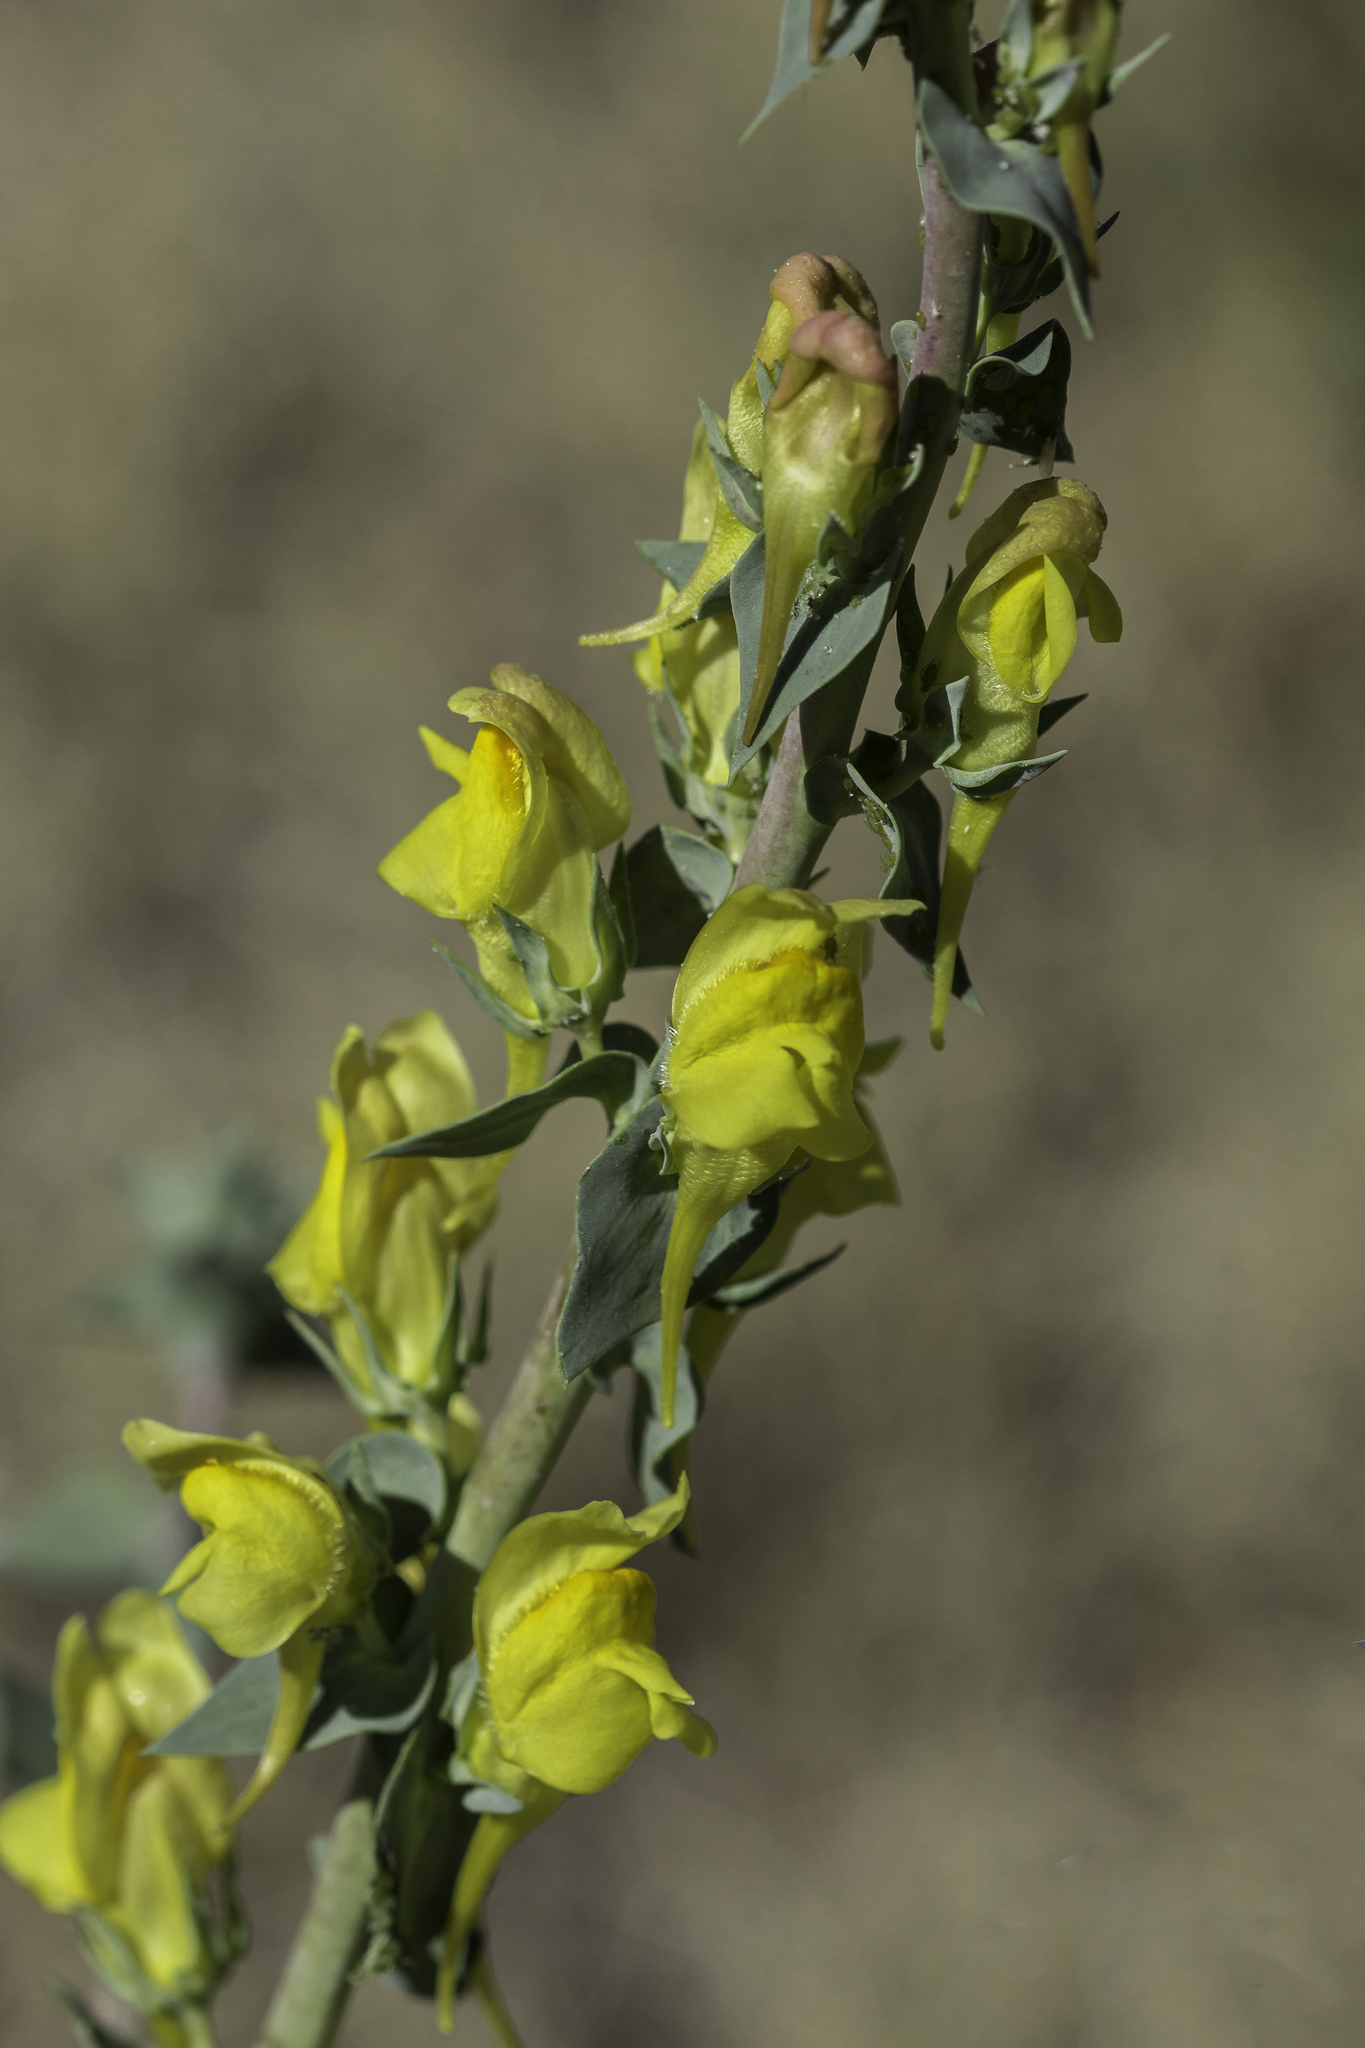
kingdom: Plantae
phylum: Tracheophyta
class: Magnoliopsida
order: Lamiales
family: Plantaginaceae
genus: Linaria
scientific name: Linaria dalmatica
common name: Dalmatian toadflax
